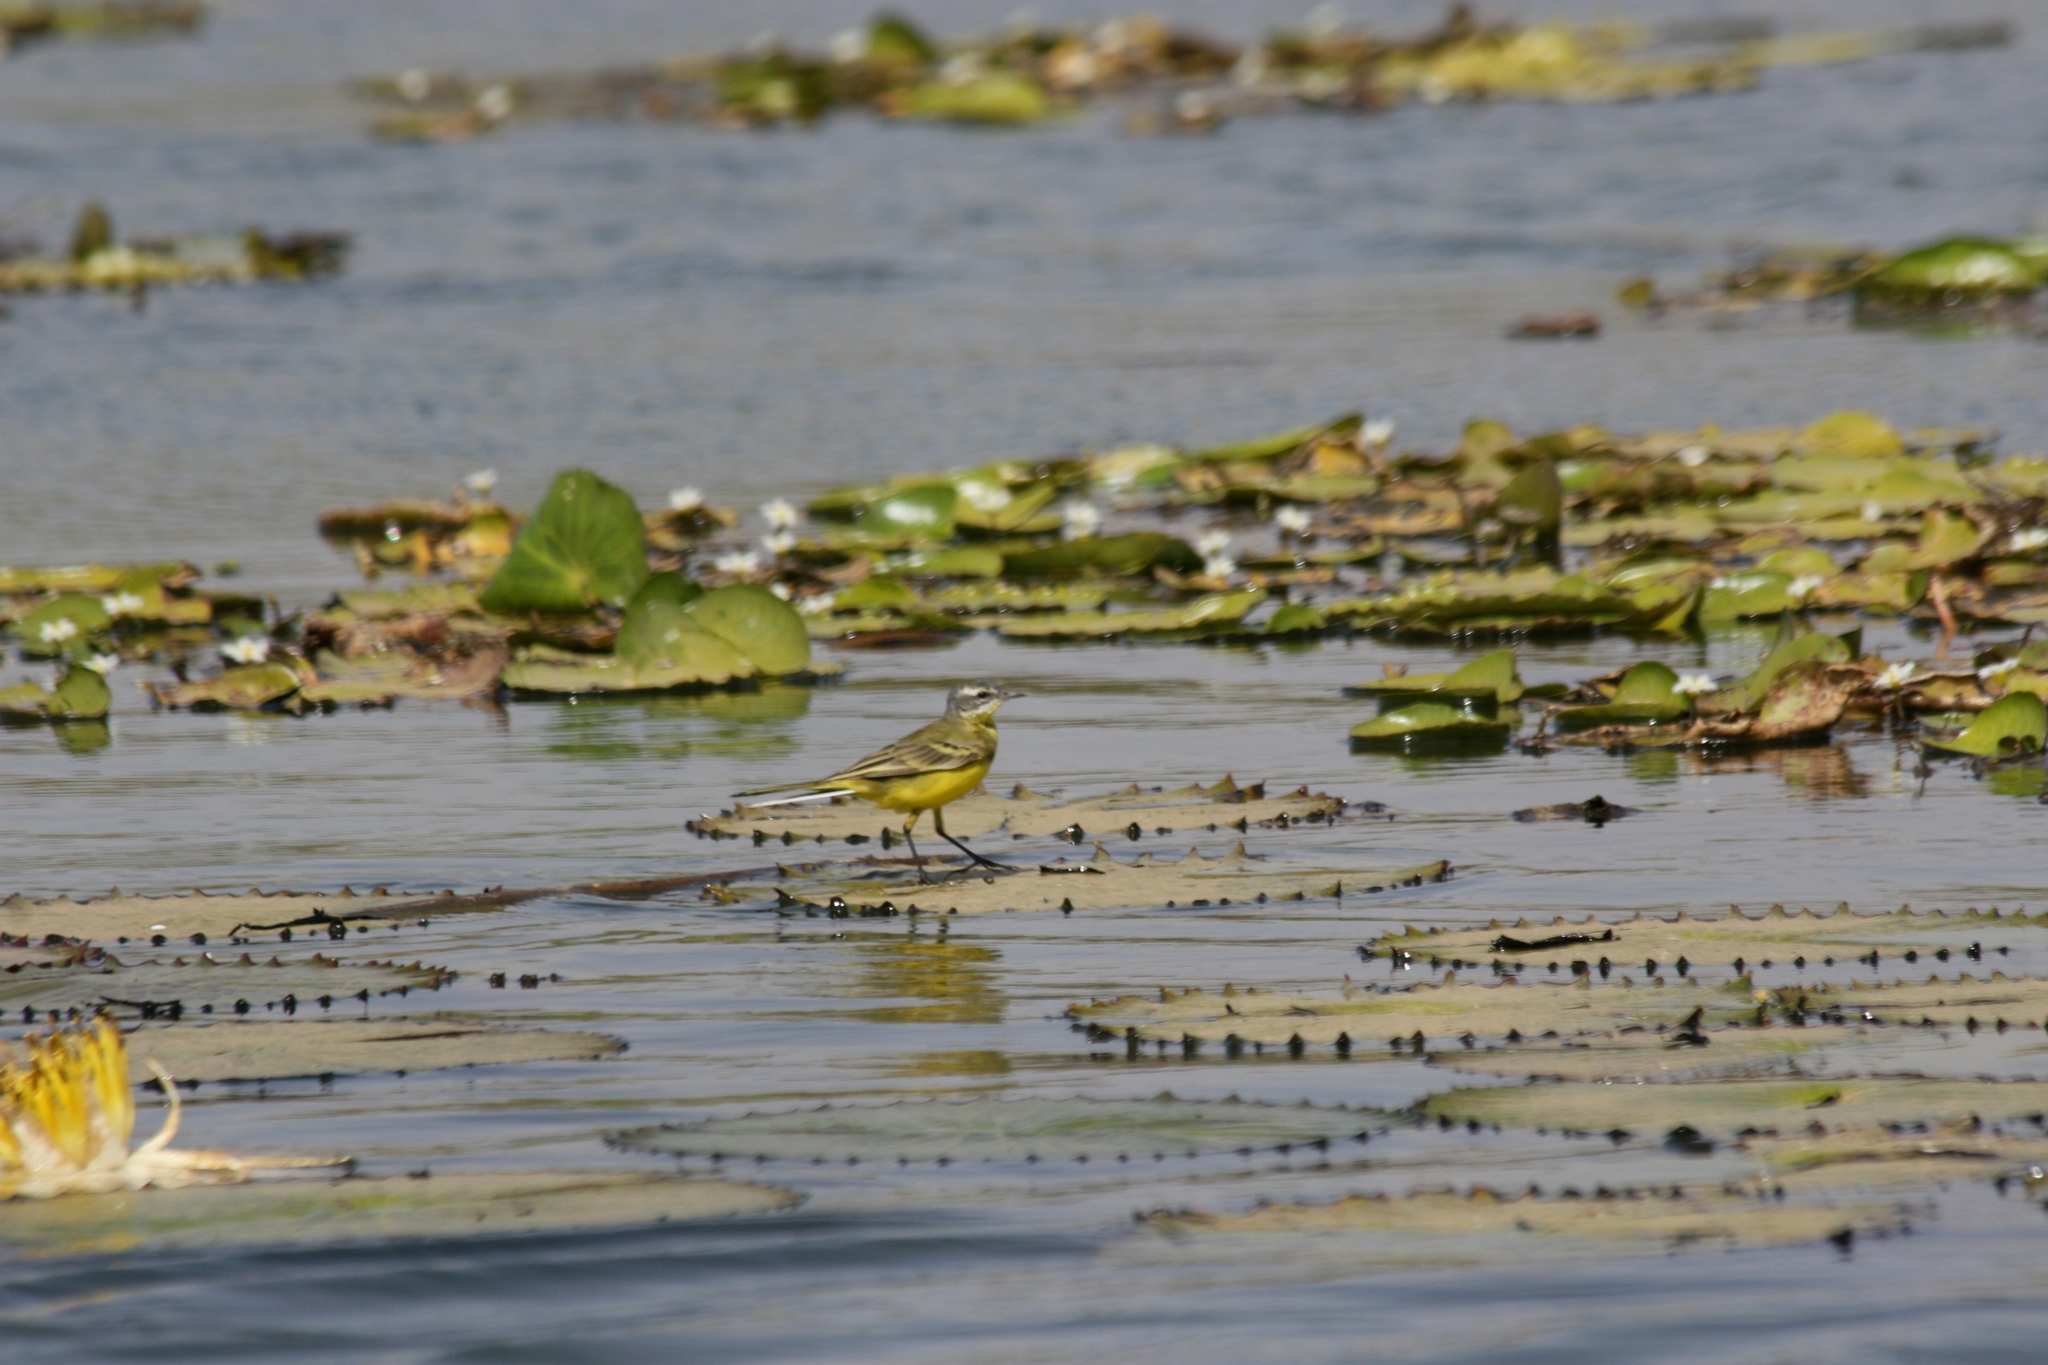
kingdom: Animalia
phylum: Chordata
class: Aves
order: Passeriformes
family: Motacillidae
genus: Motacilla
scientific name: Motacilla flava
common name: Western yellow wagtail
